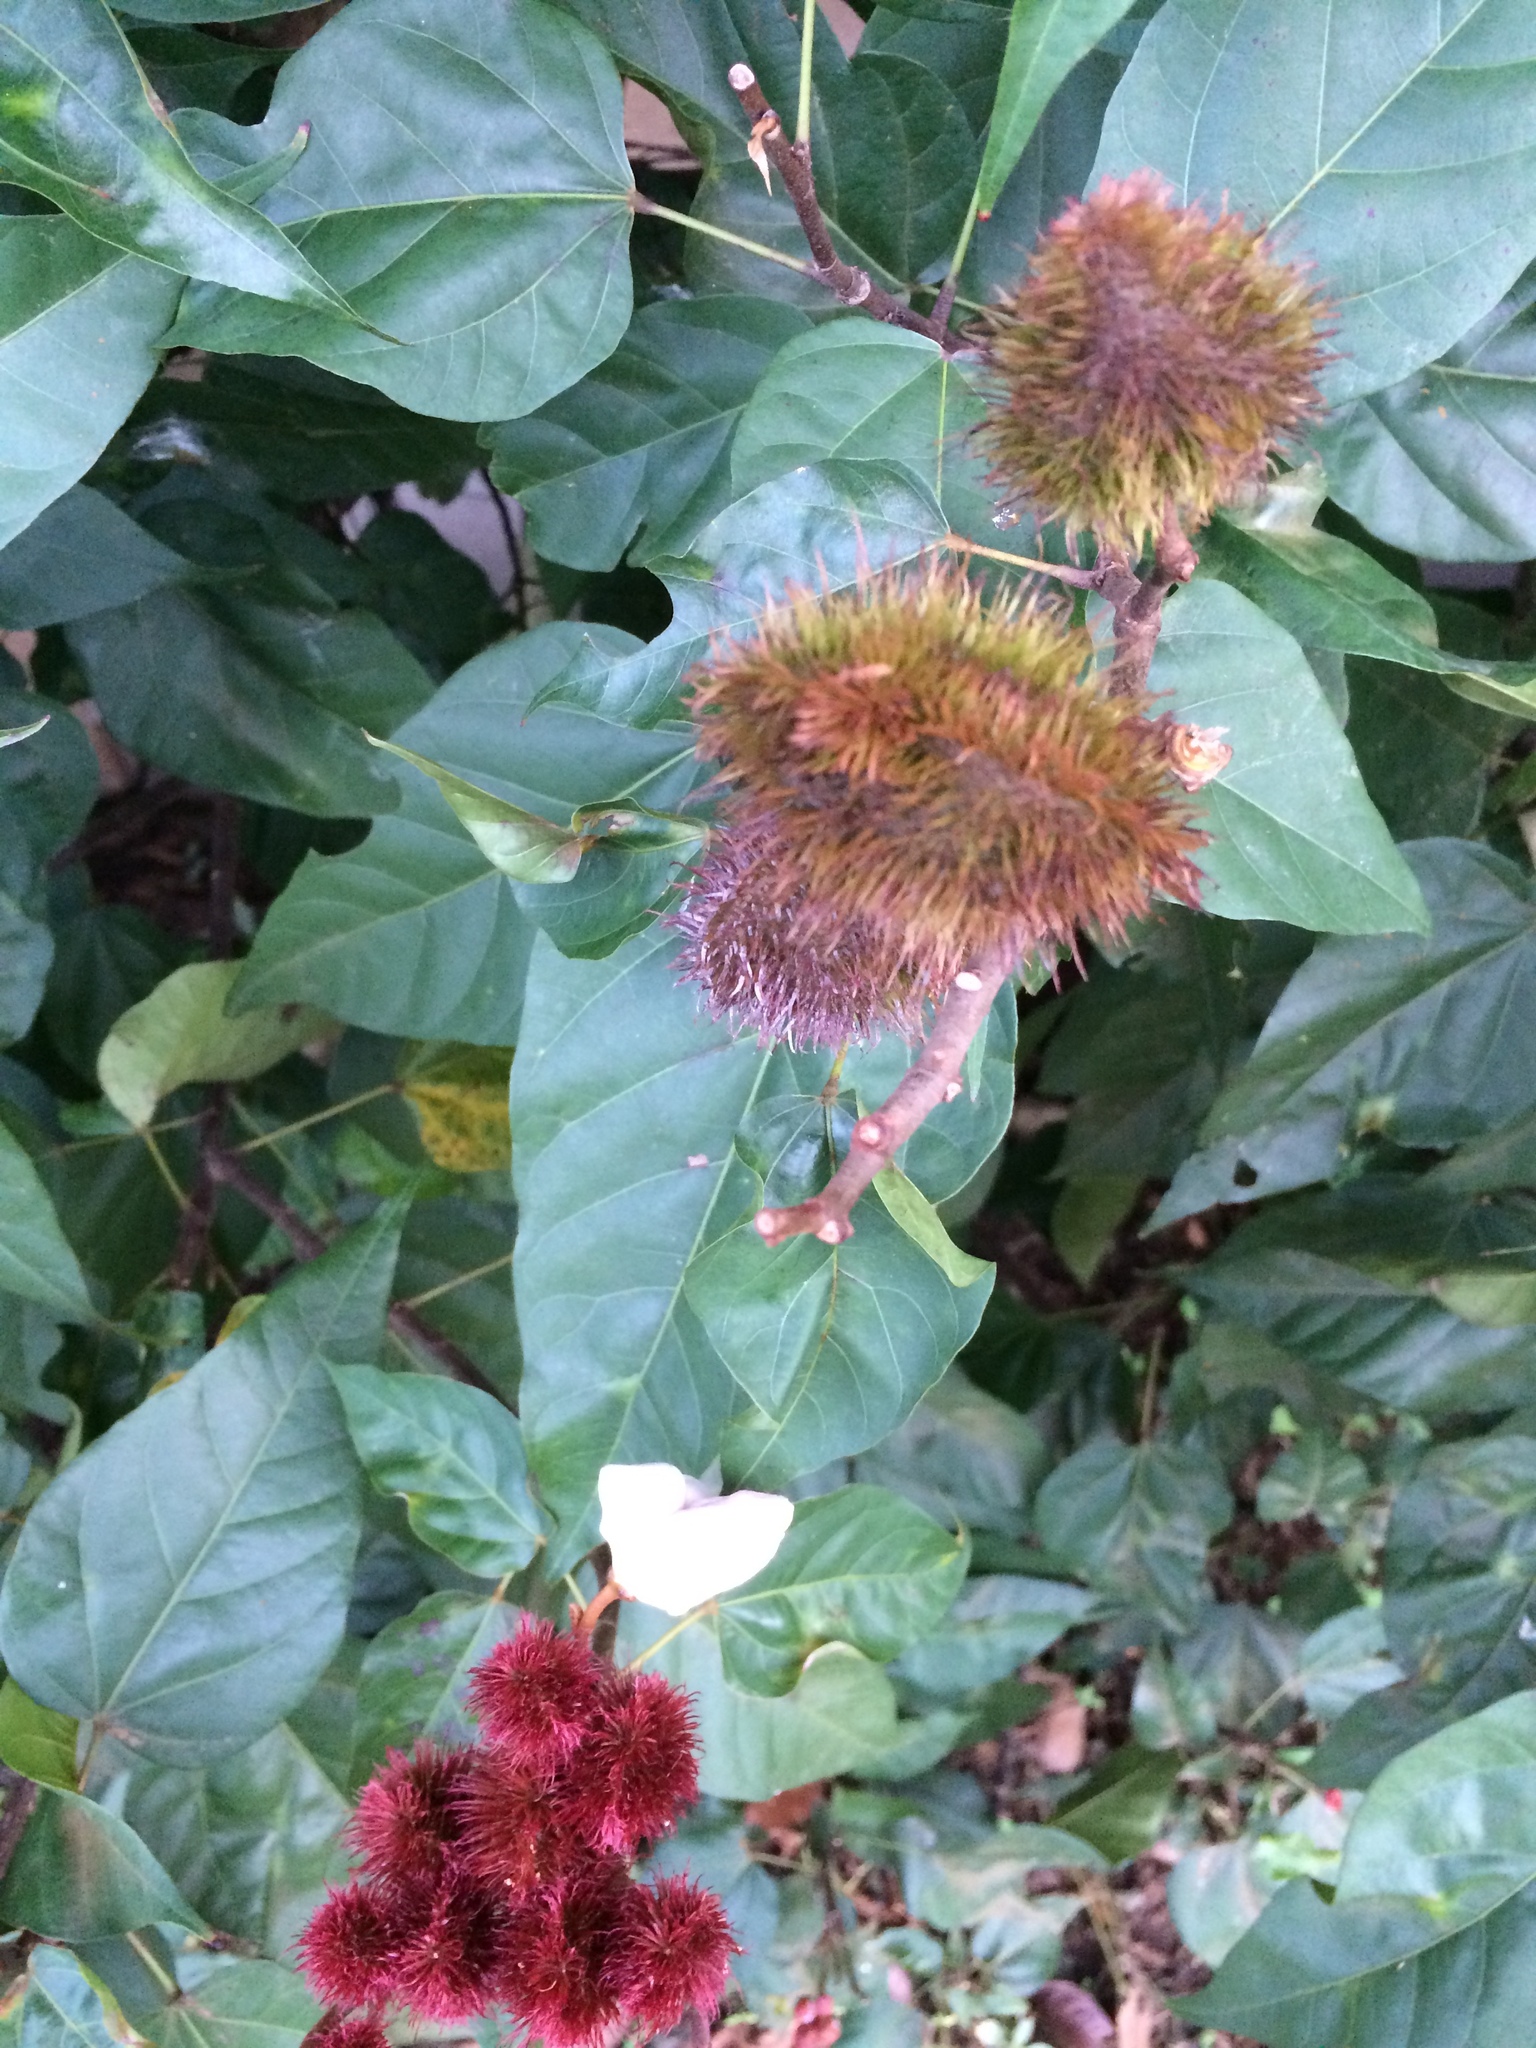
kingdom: Plantae
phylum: Tracheophyta
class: Magnoliopsida
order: Malvales
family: Bixaceae
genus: Bixa
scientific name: Bixa orellana
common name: Lipsticktree
